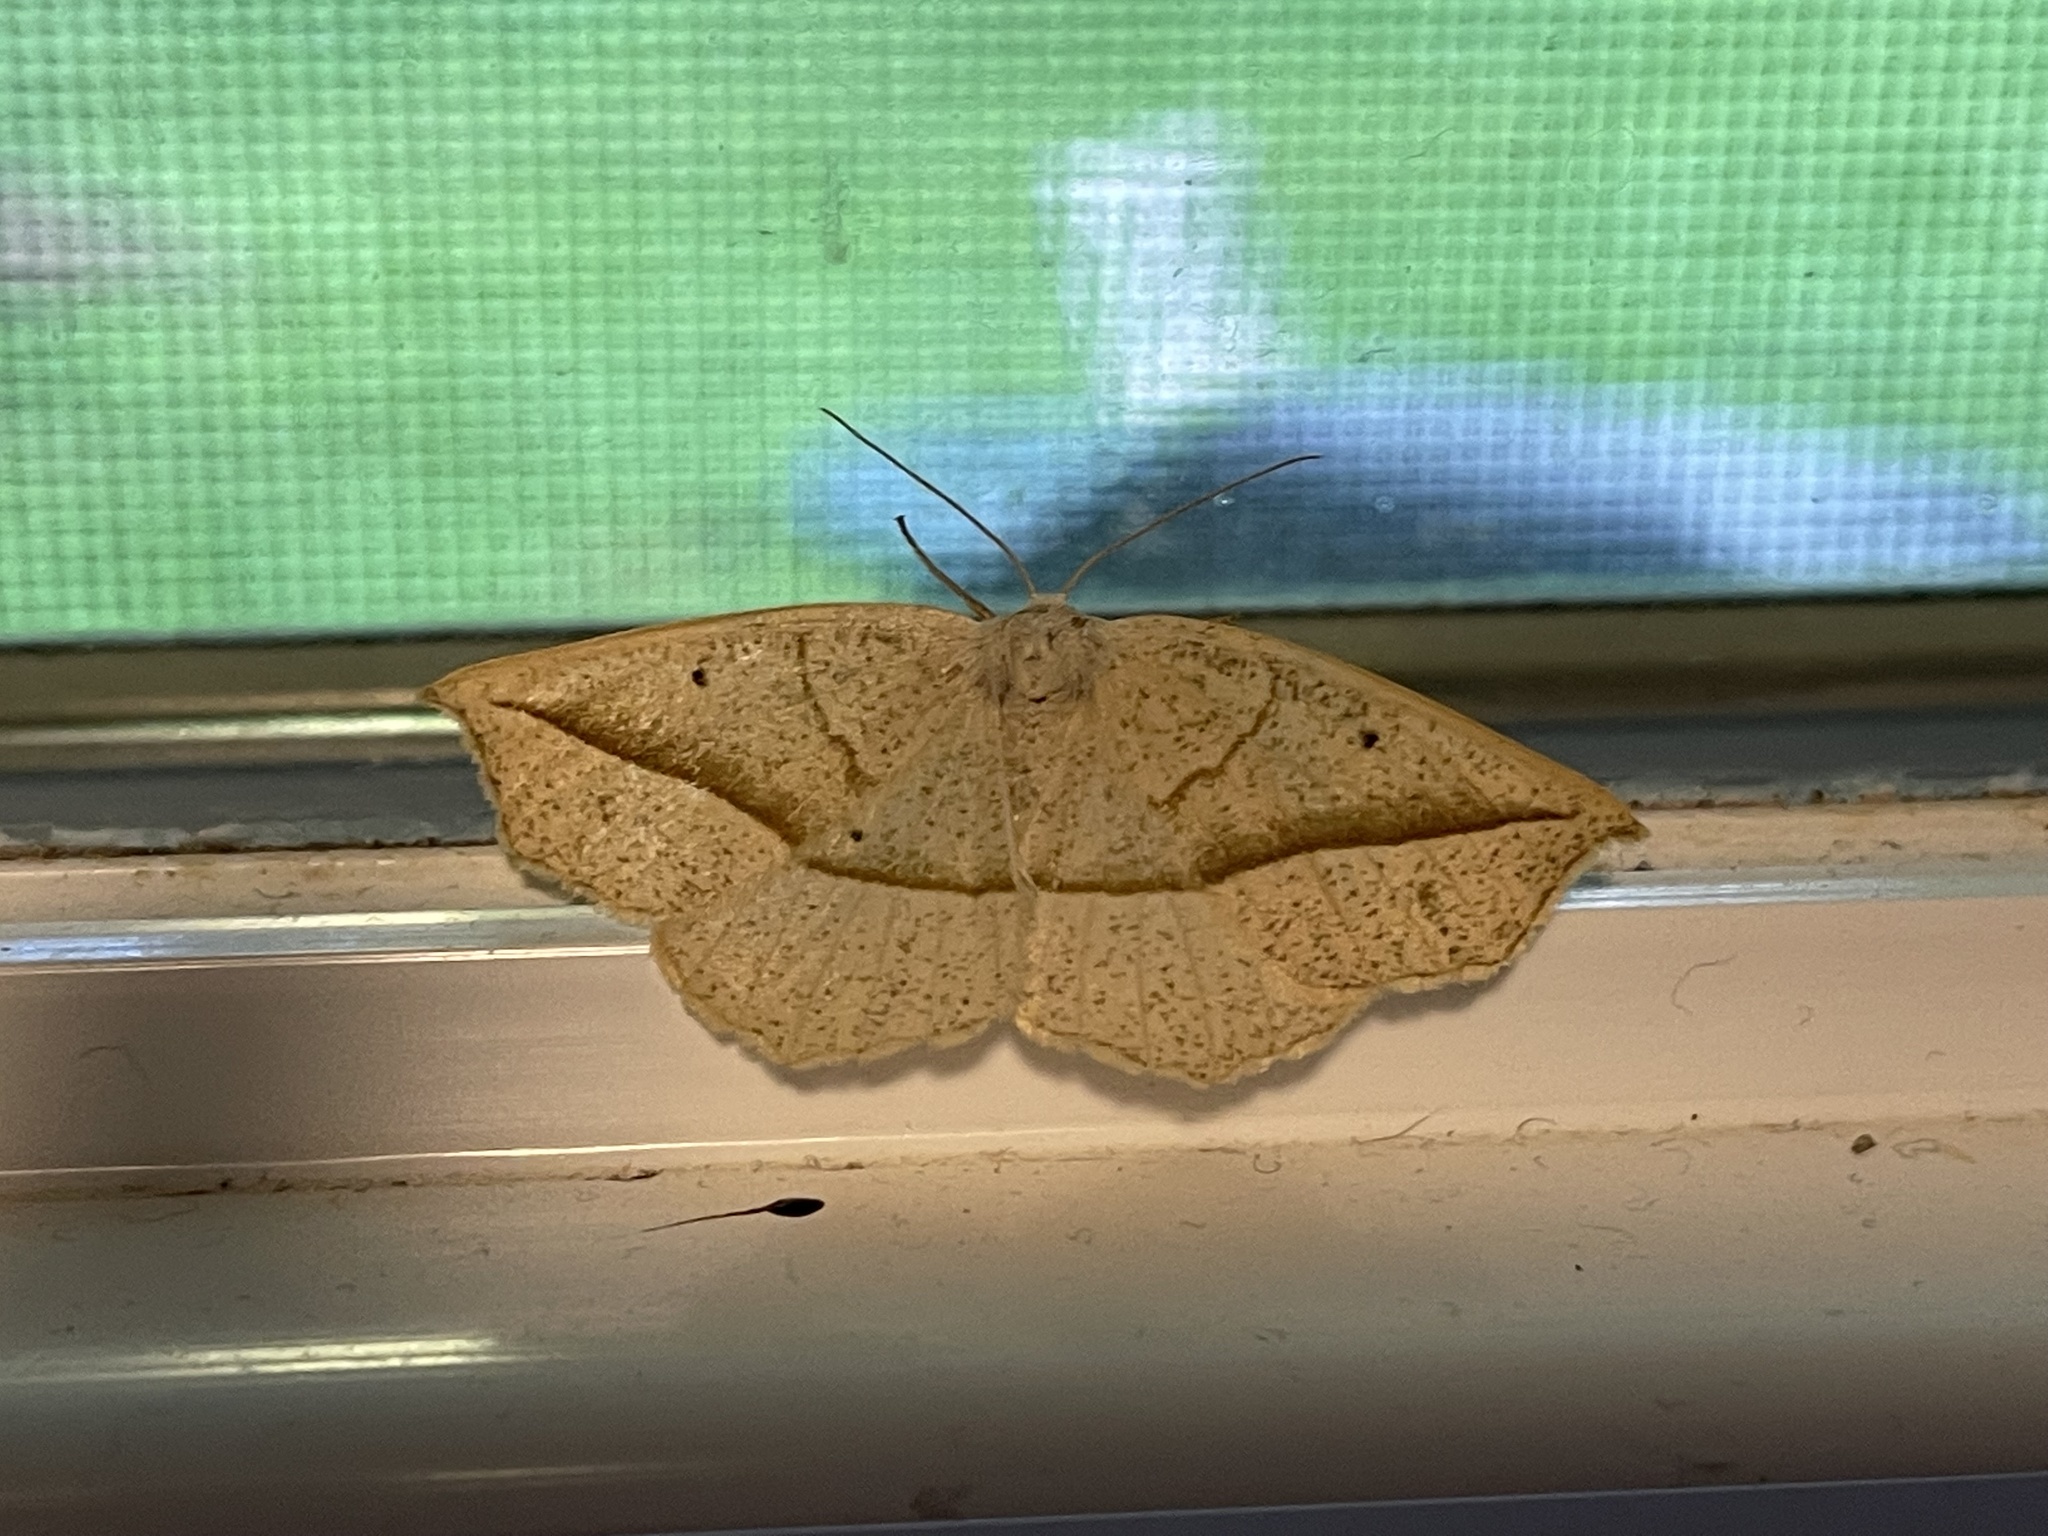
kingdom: Animalia
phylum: Arthropoda
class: Insecta
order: Lepidoptera
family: Geometridae
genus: Eusarca
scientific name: Eusarca confusaria
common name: Confused eusarca
